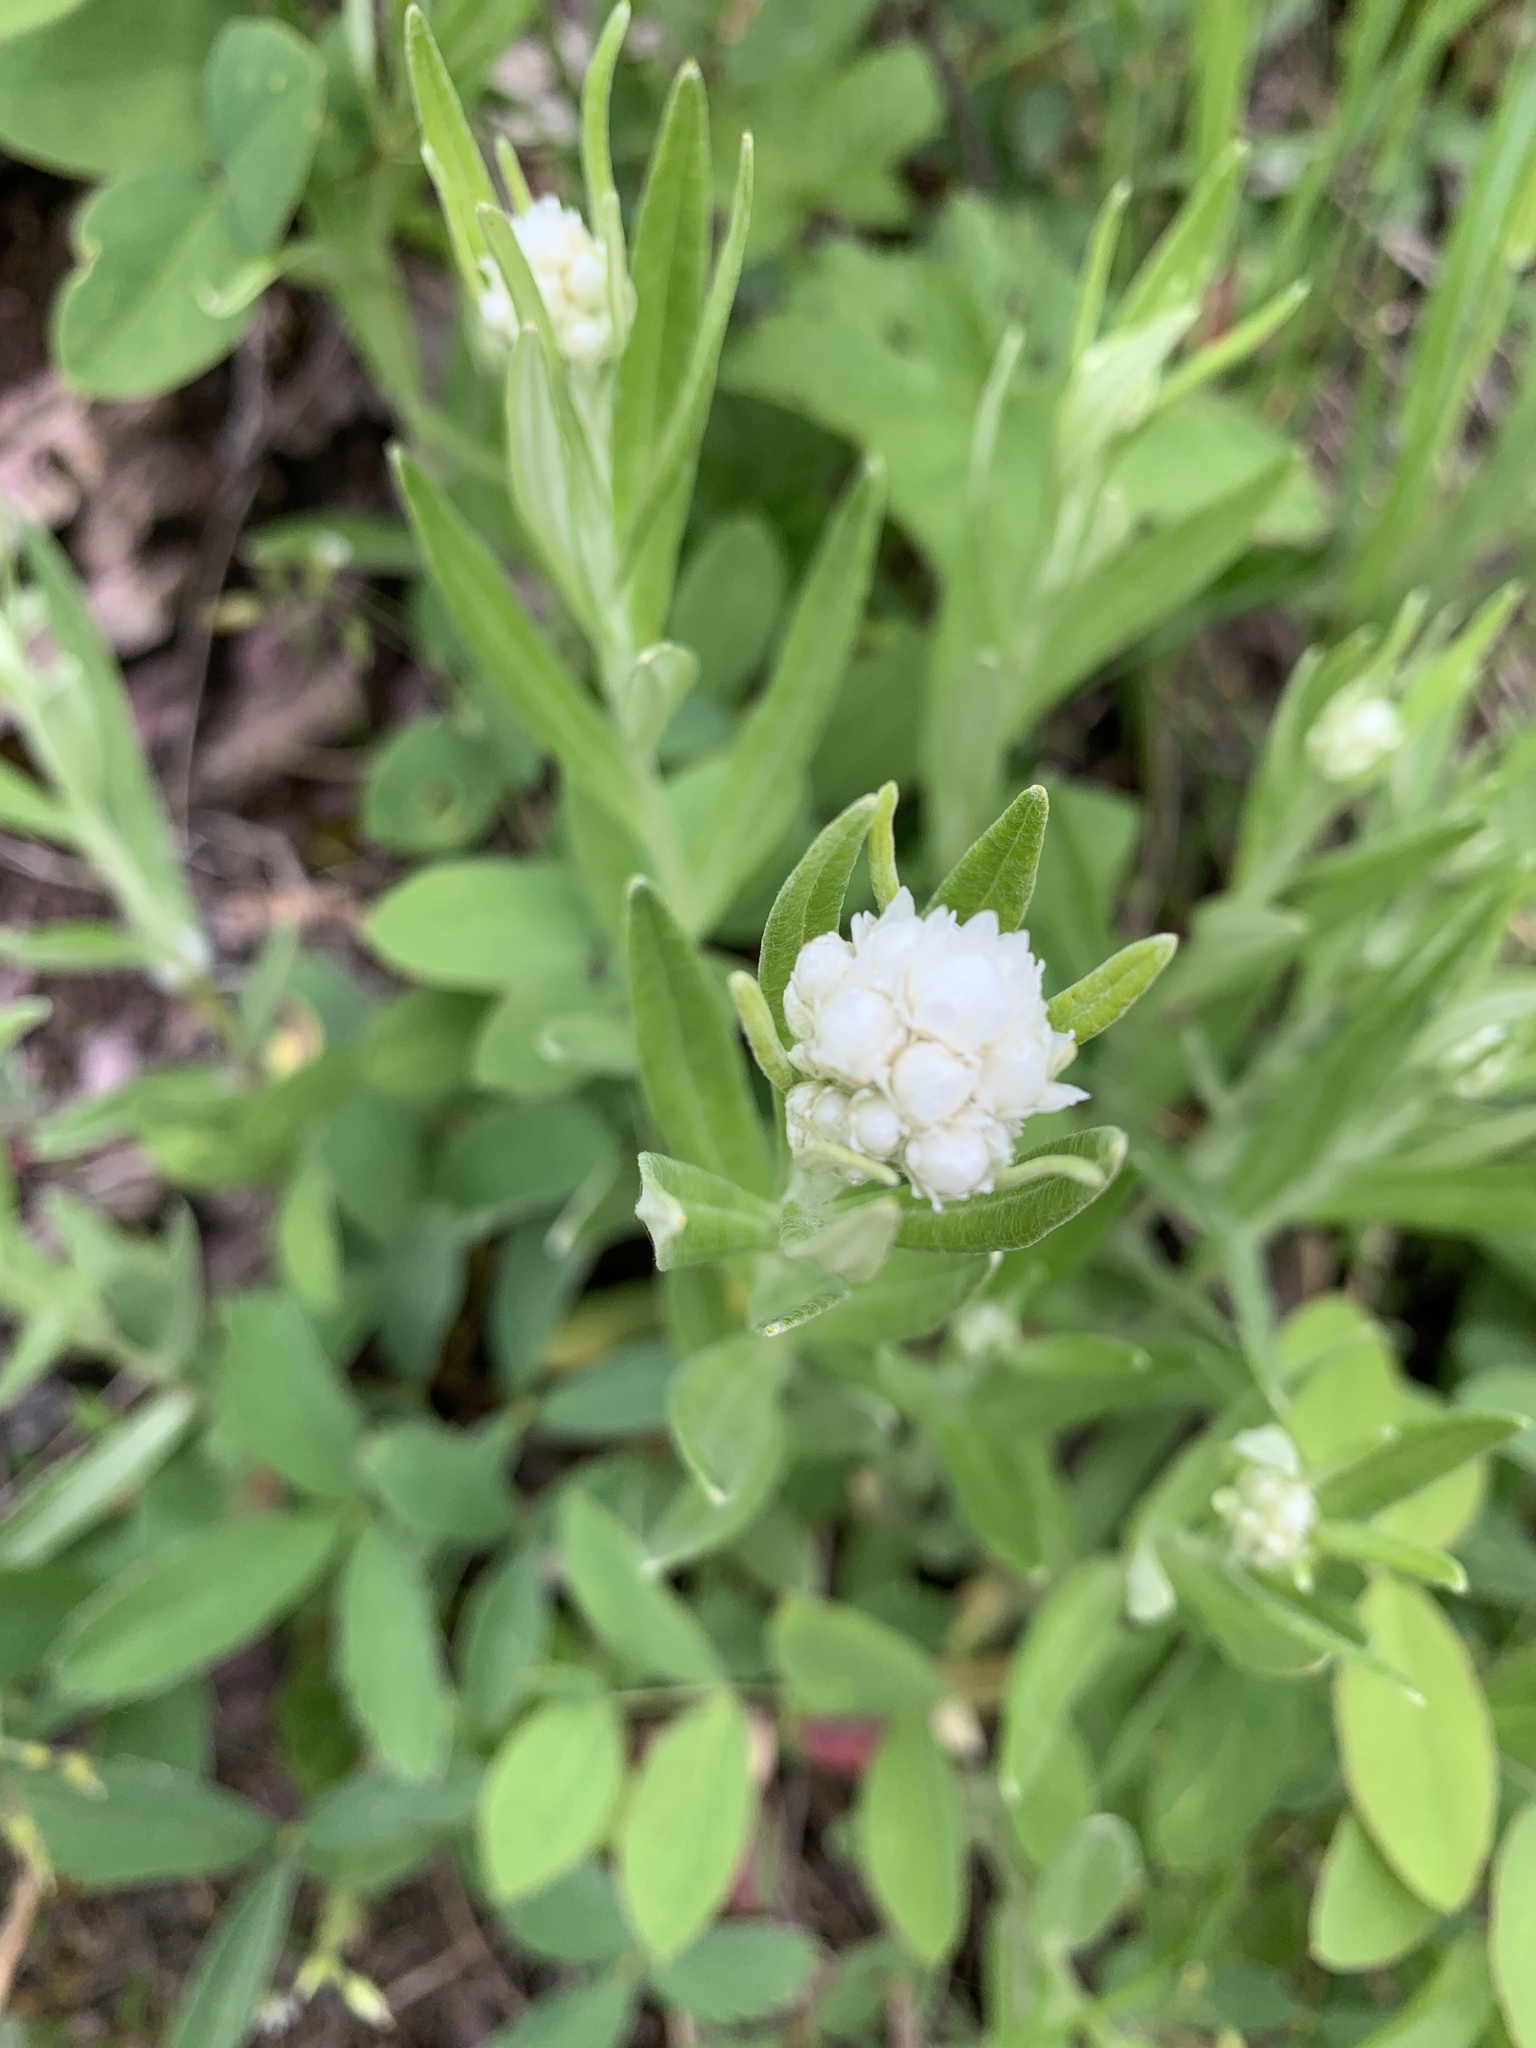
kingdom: Plantae
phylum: Tracheophyta
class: Magnoliopsida
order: Asterales
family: Asteraceae
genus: Anaphalis
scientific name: Anaphalis margaritacea
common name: Pearly everlasting
